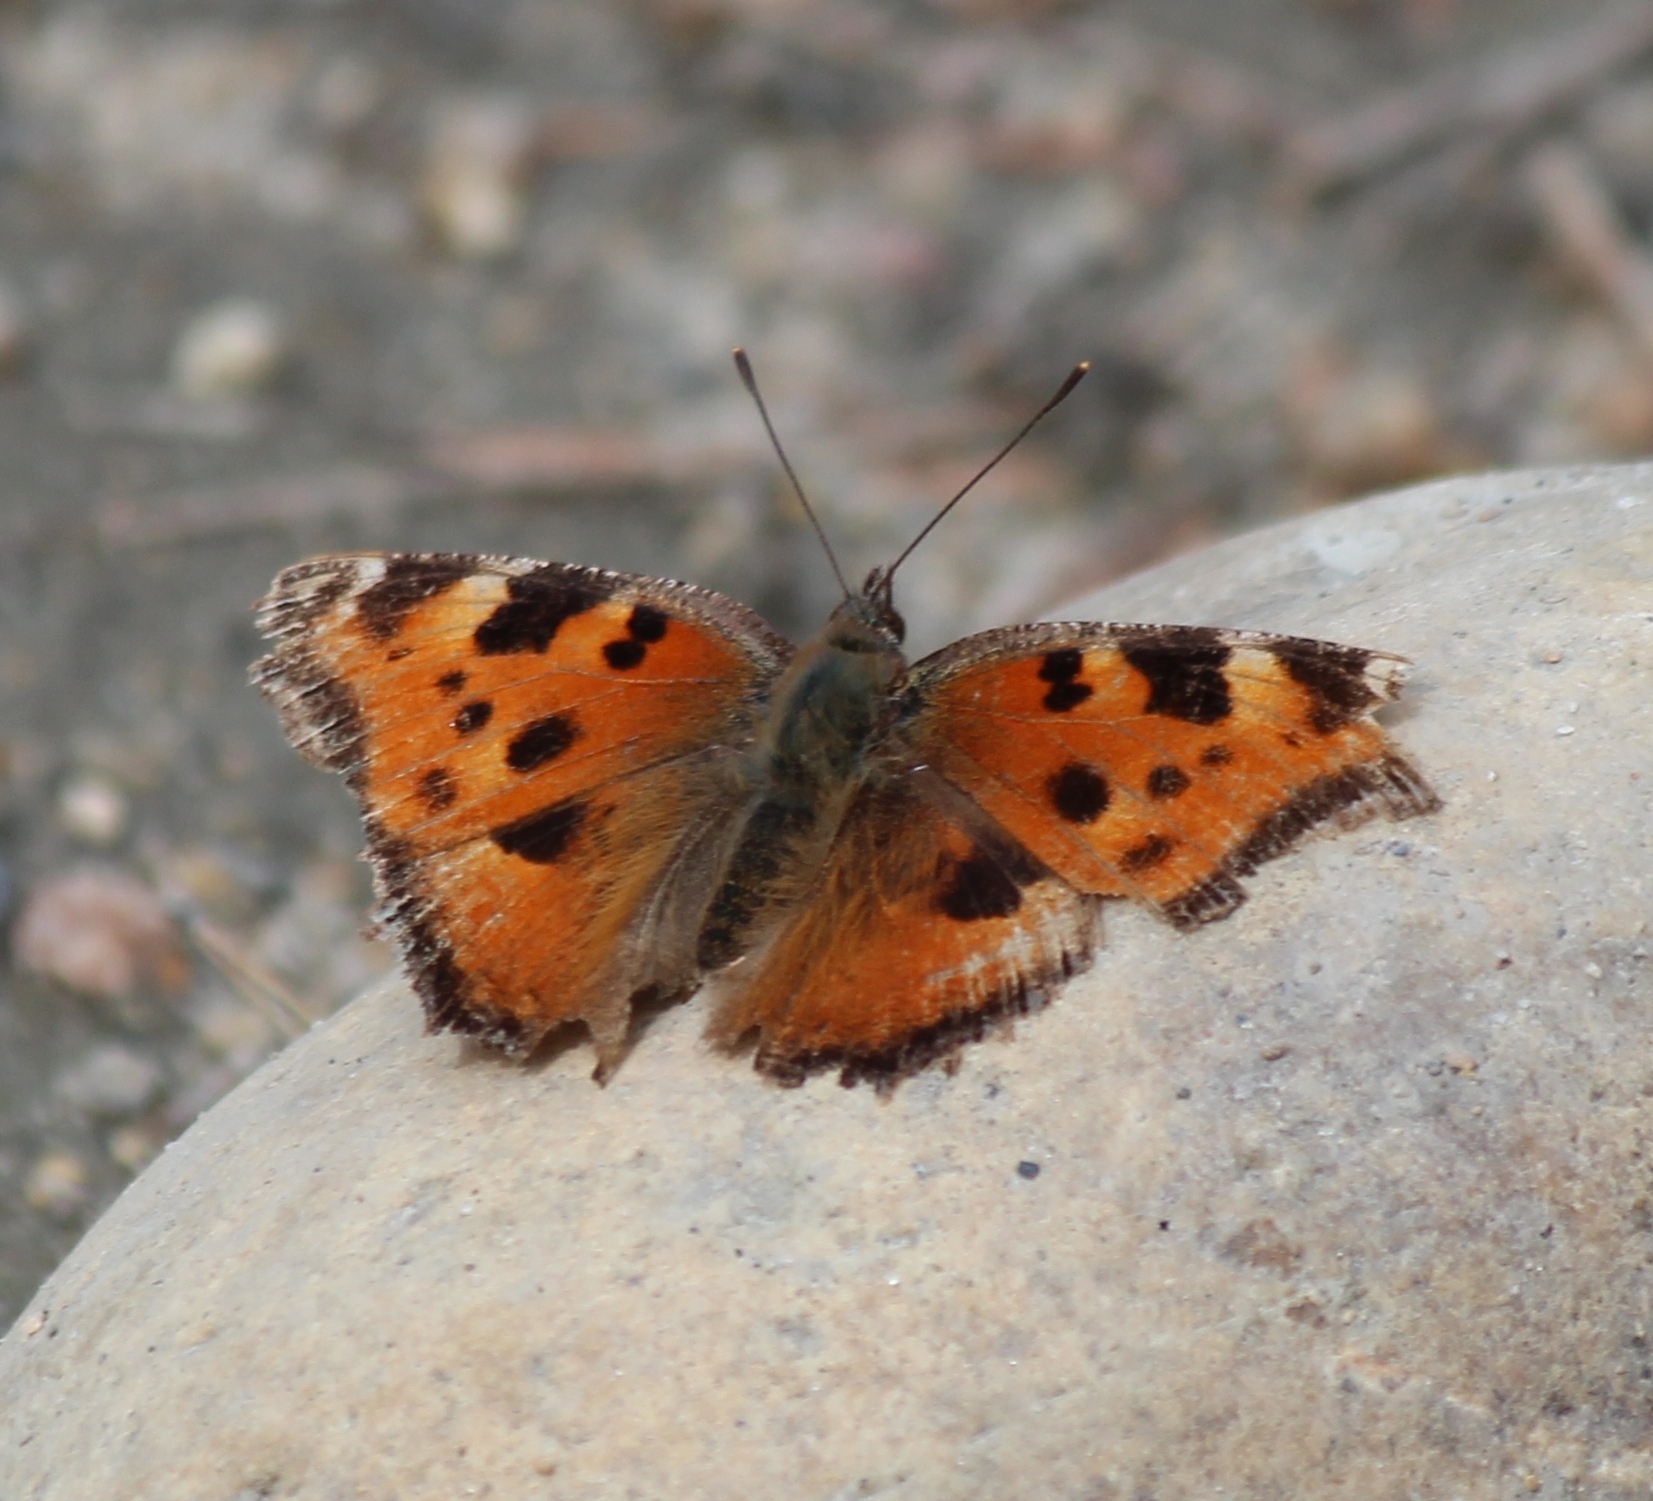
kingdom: Animalia
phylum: Arthropoda
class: Insecta
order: Lepidoptera
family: Nymphalidae
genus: Nymphalis
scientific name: Nymphalis xanthomelas
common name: Scarce tortoiseshell
